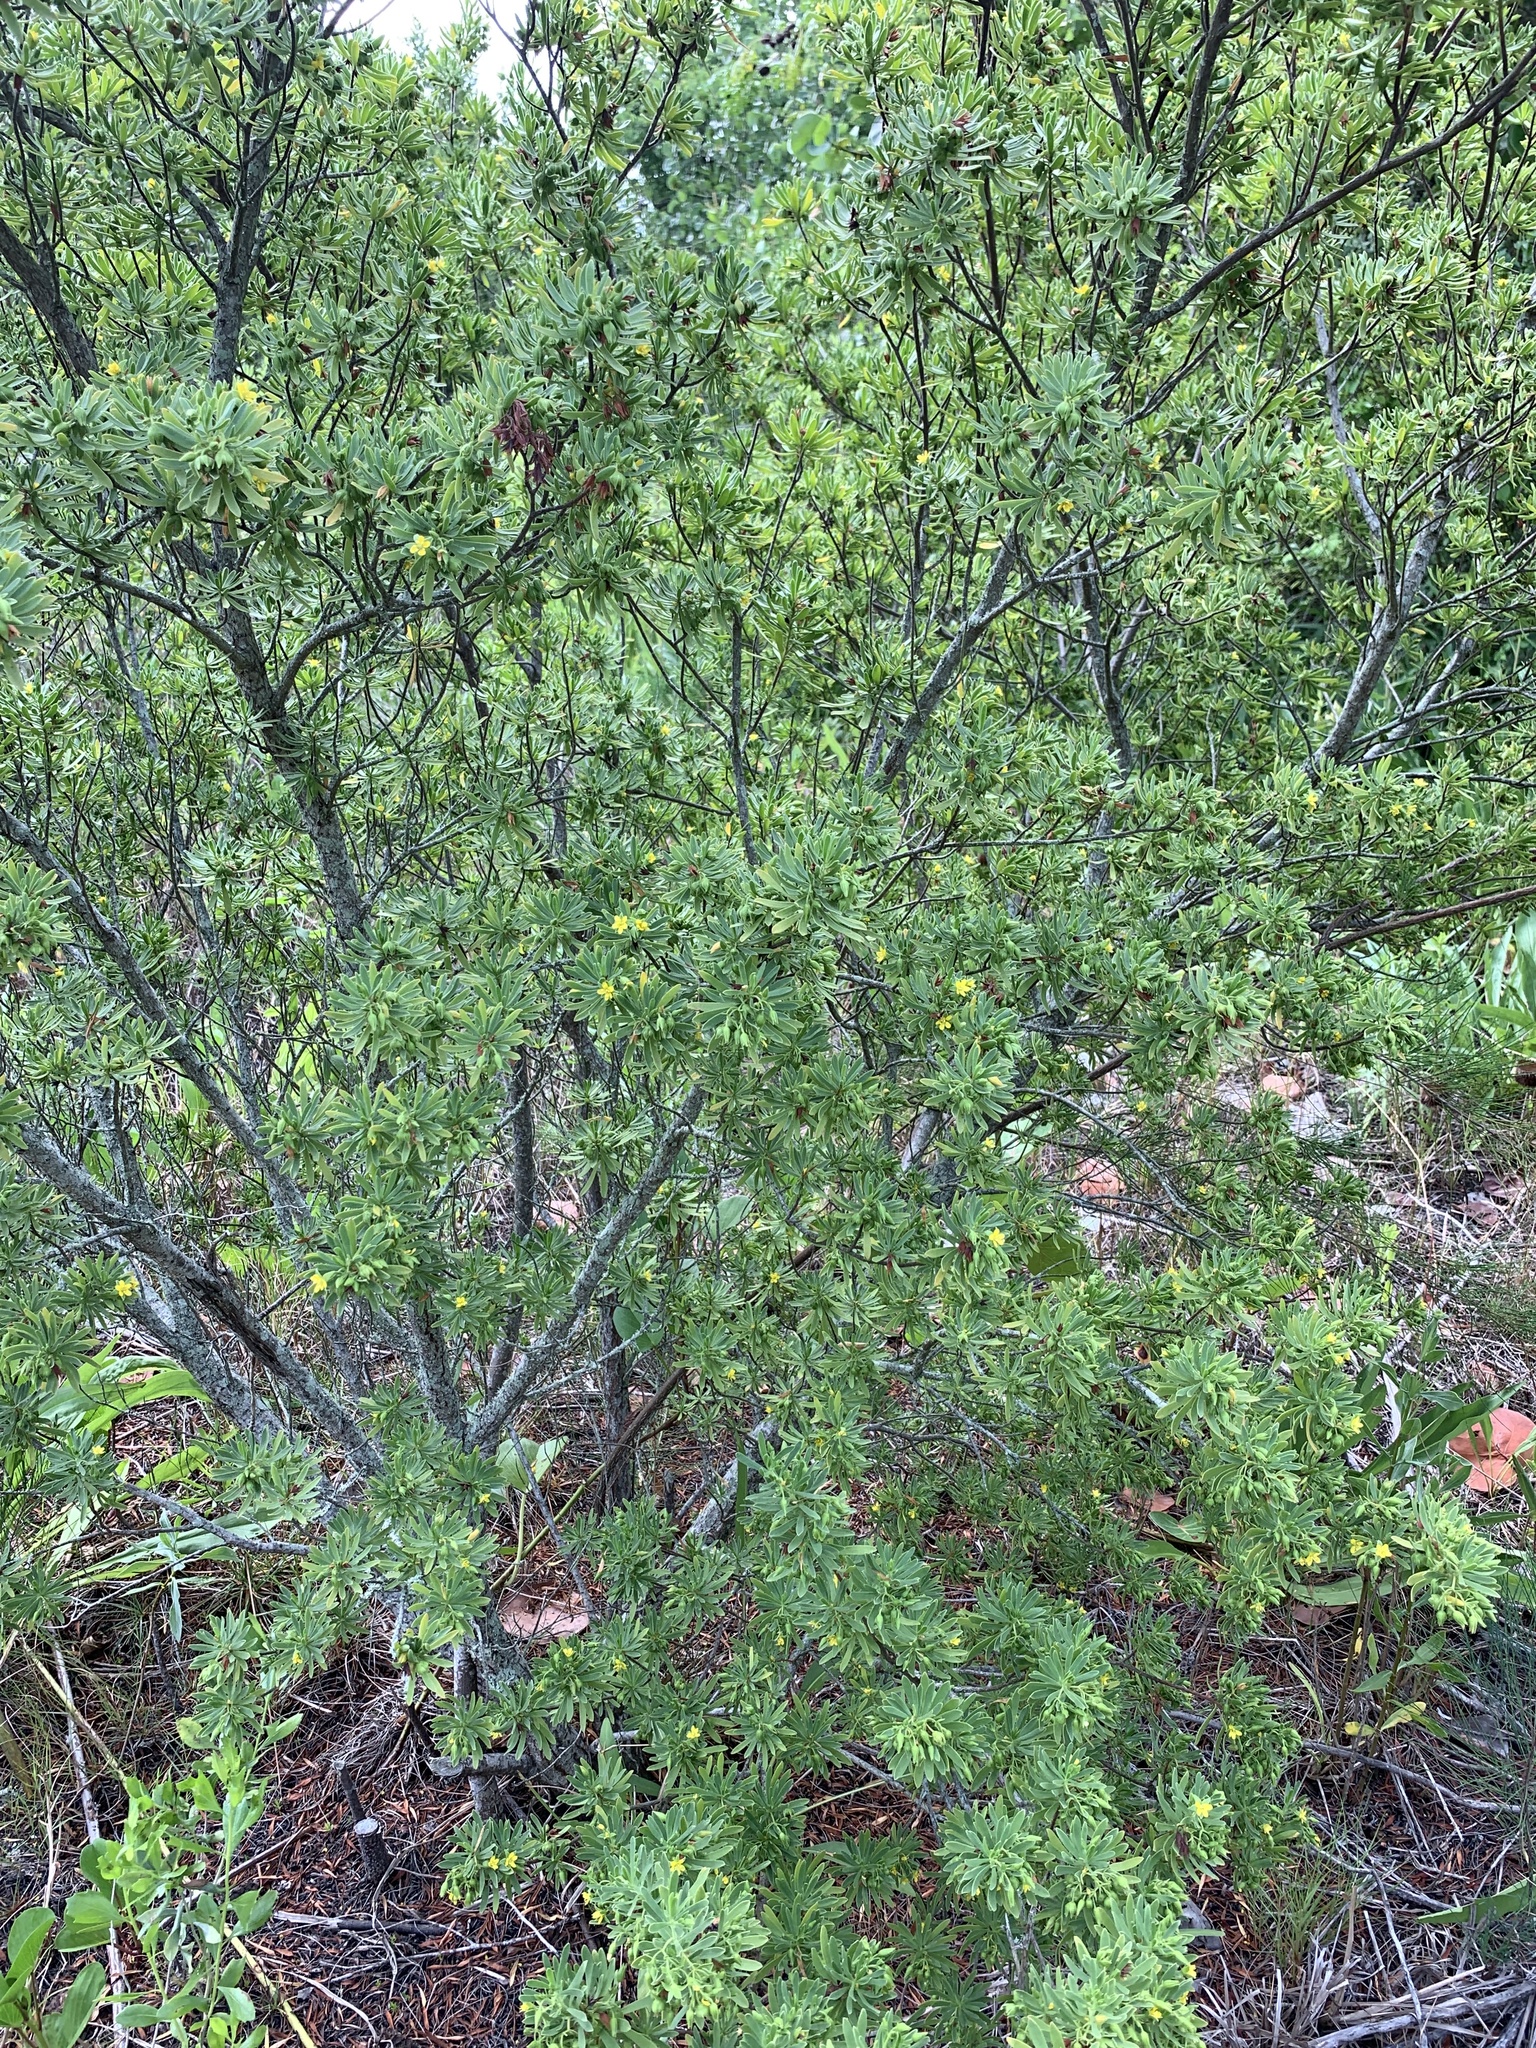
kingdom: Plantae
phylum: Tracheophyta
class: Magnoliopsida
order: Fabales
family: Surianaceae
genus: Suriana
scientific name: Suriana maritima
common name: Bay-cedar
